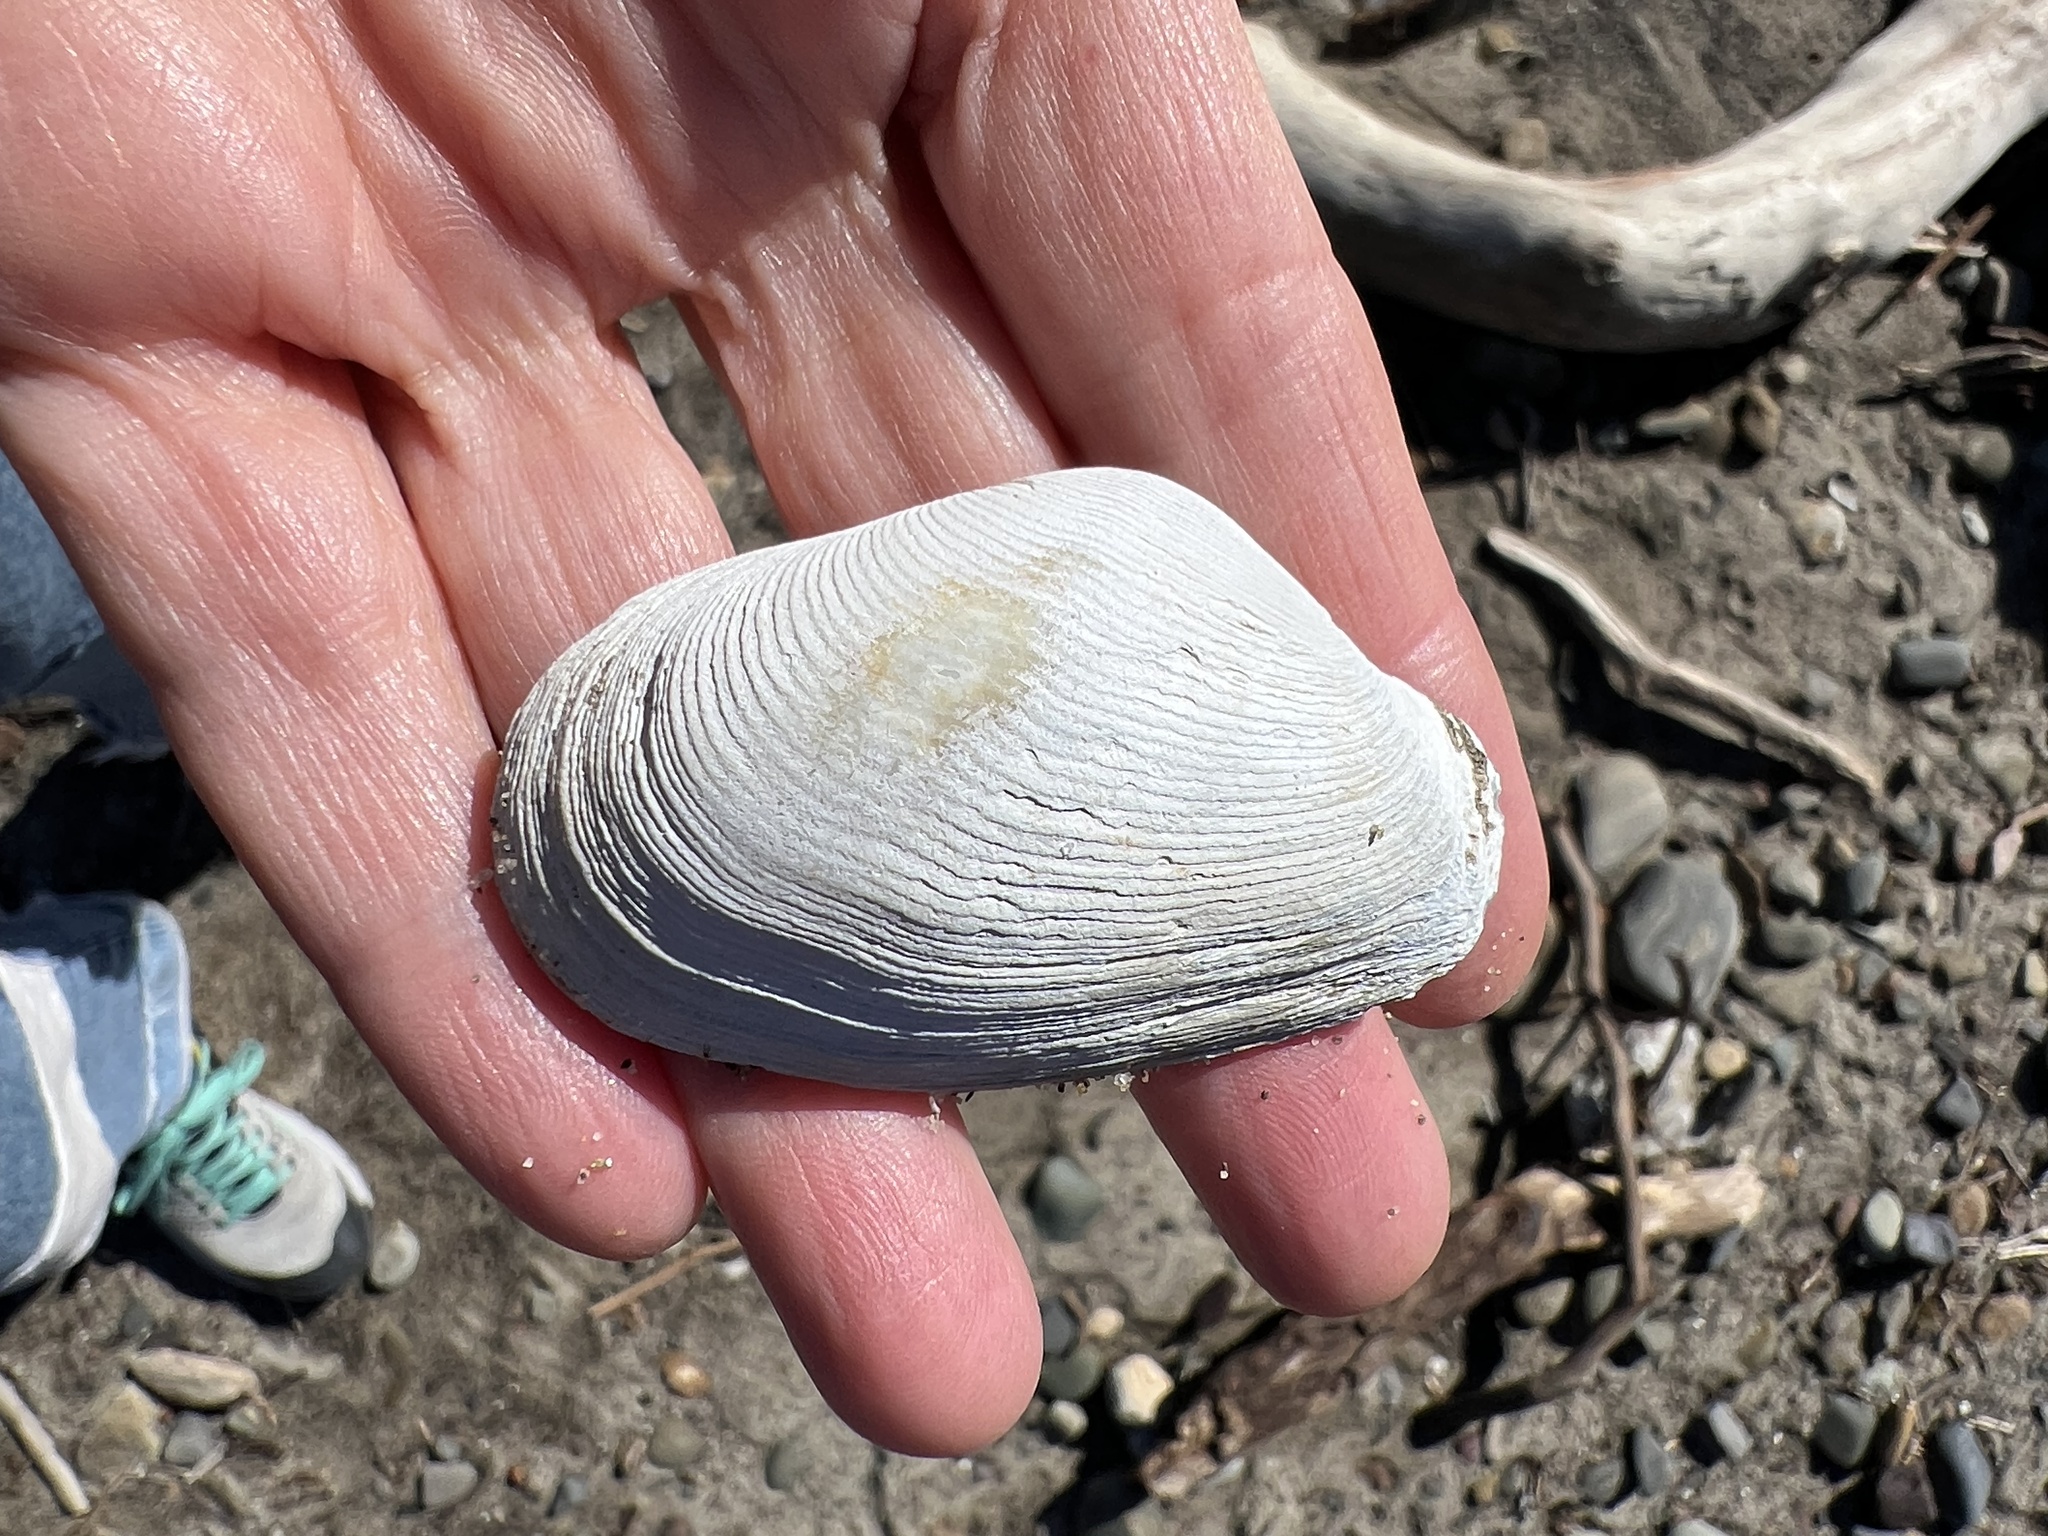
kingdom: Animalia
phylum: Mollusca
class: Bivalvia
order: Myida
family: Myidae
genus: Platyodon
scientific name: Platyodon cancellatus
